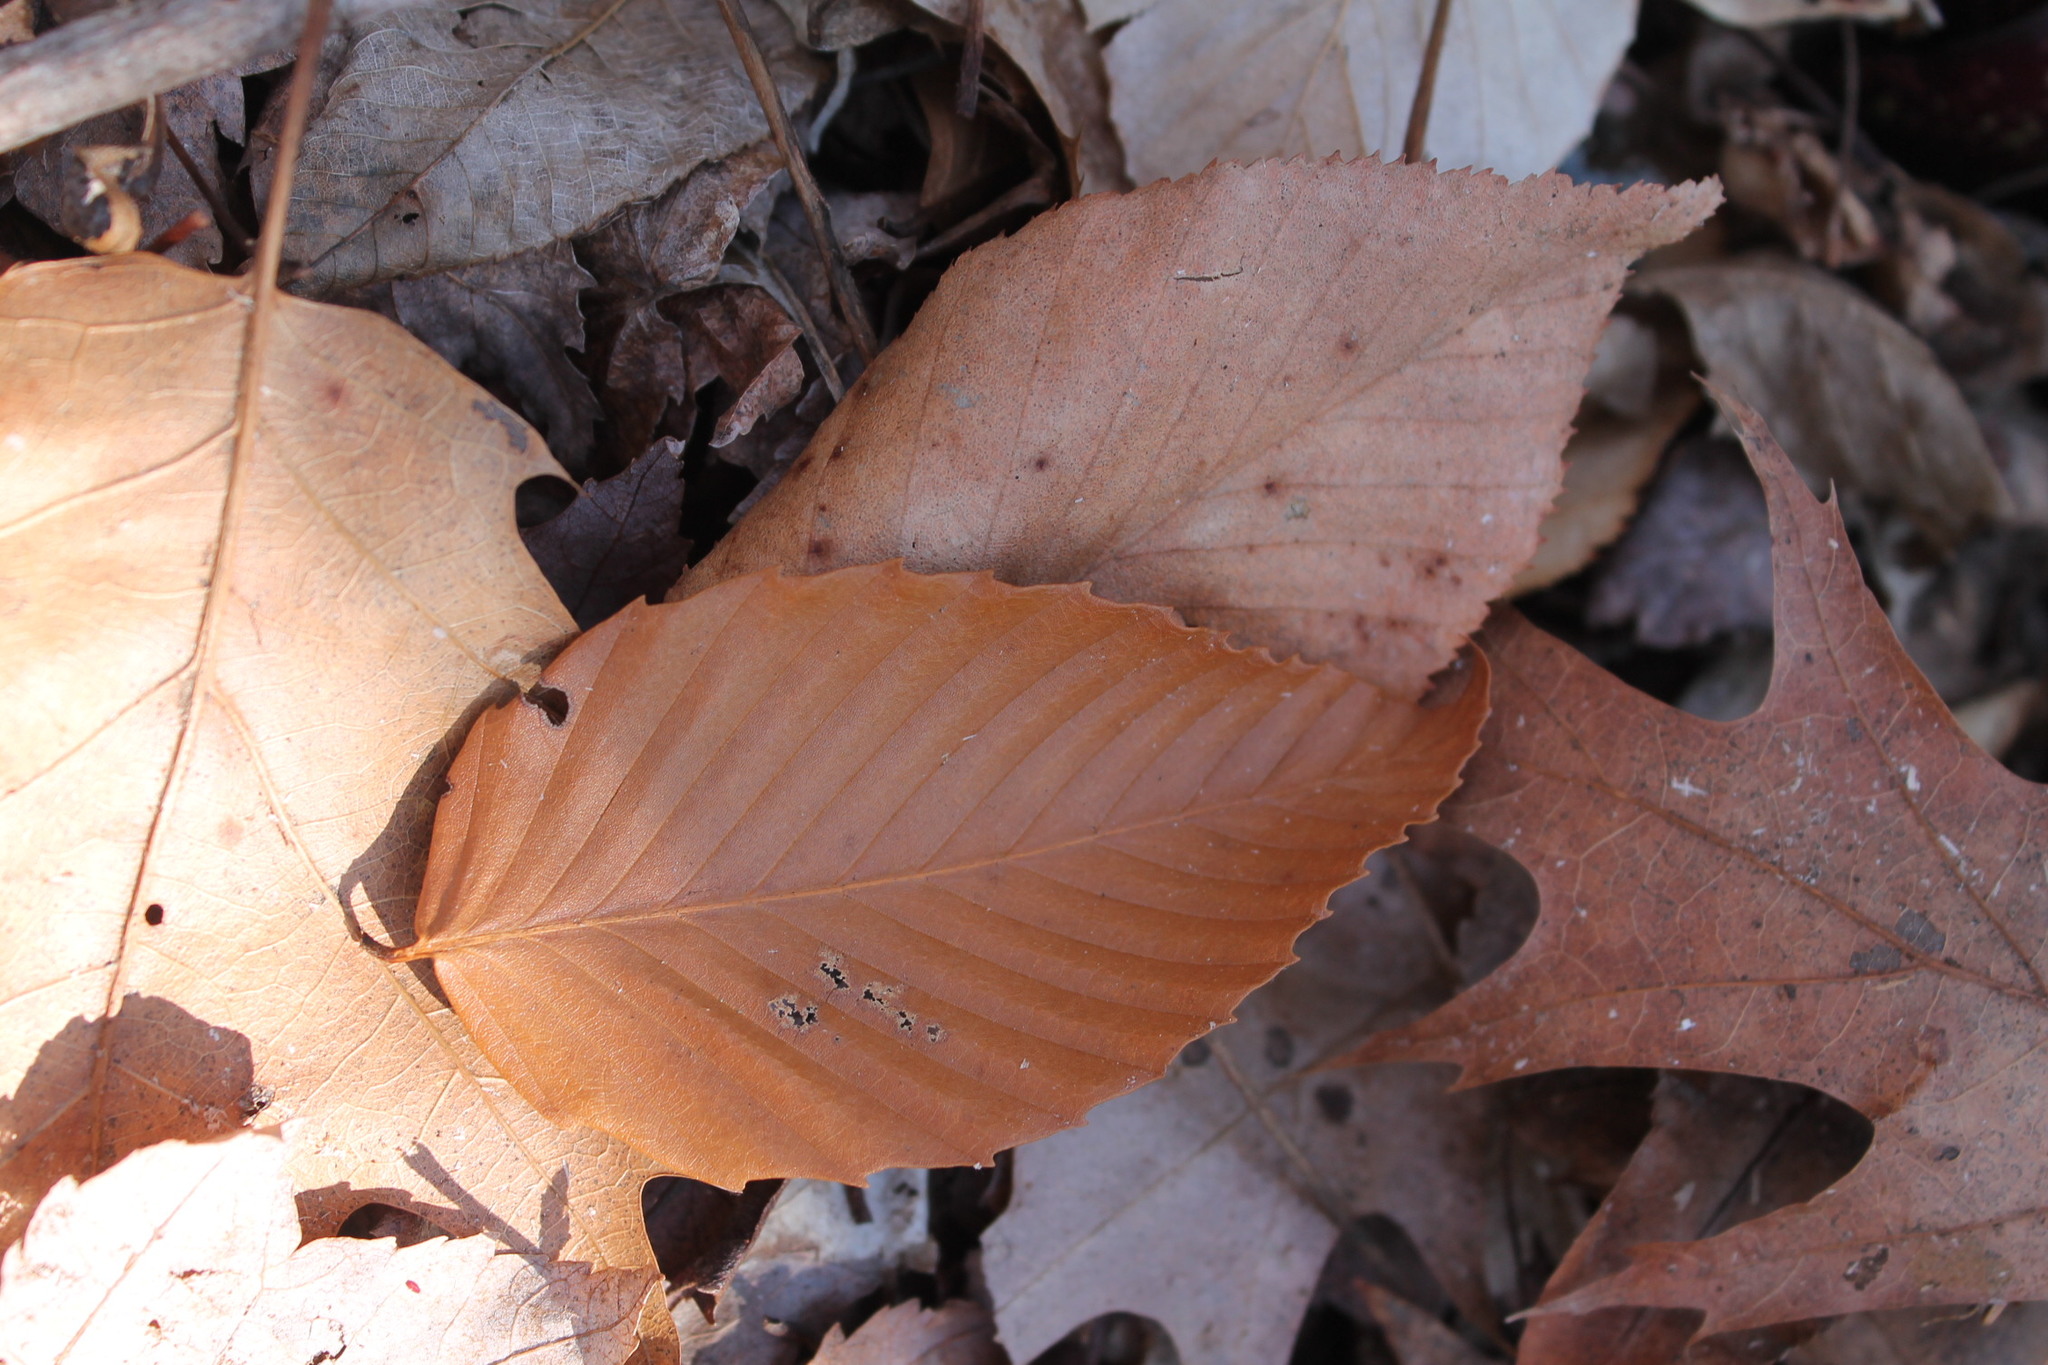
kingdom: Plantae
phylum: Tracheophyta
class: Magnoliopsida
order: Fagales
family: Fagaceae
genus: Fagus
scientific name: Fagus grandifolia
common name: American beech
